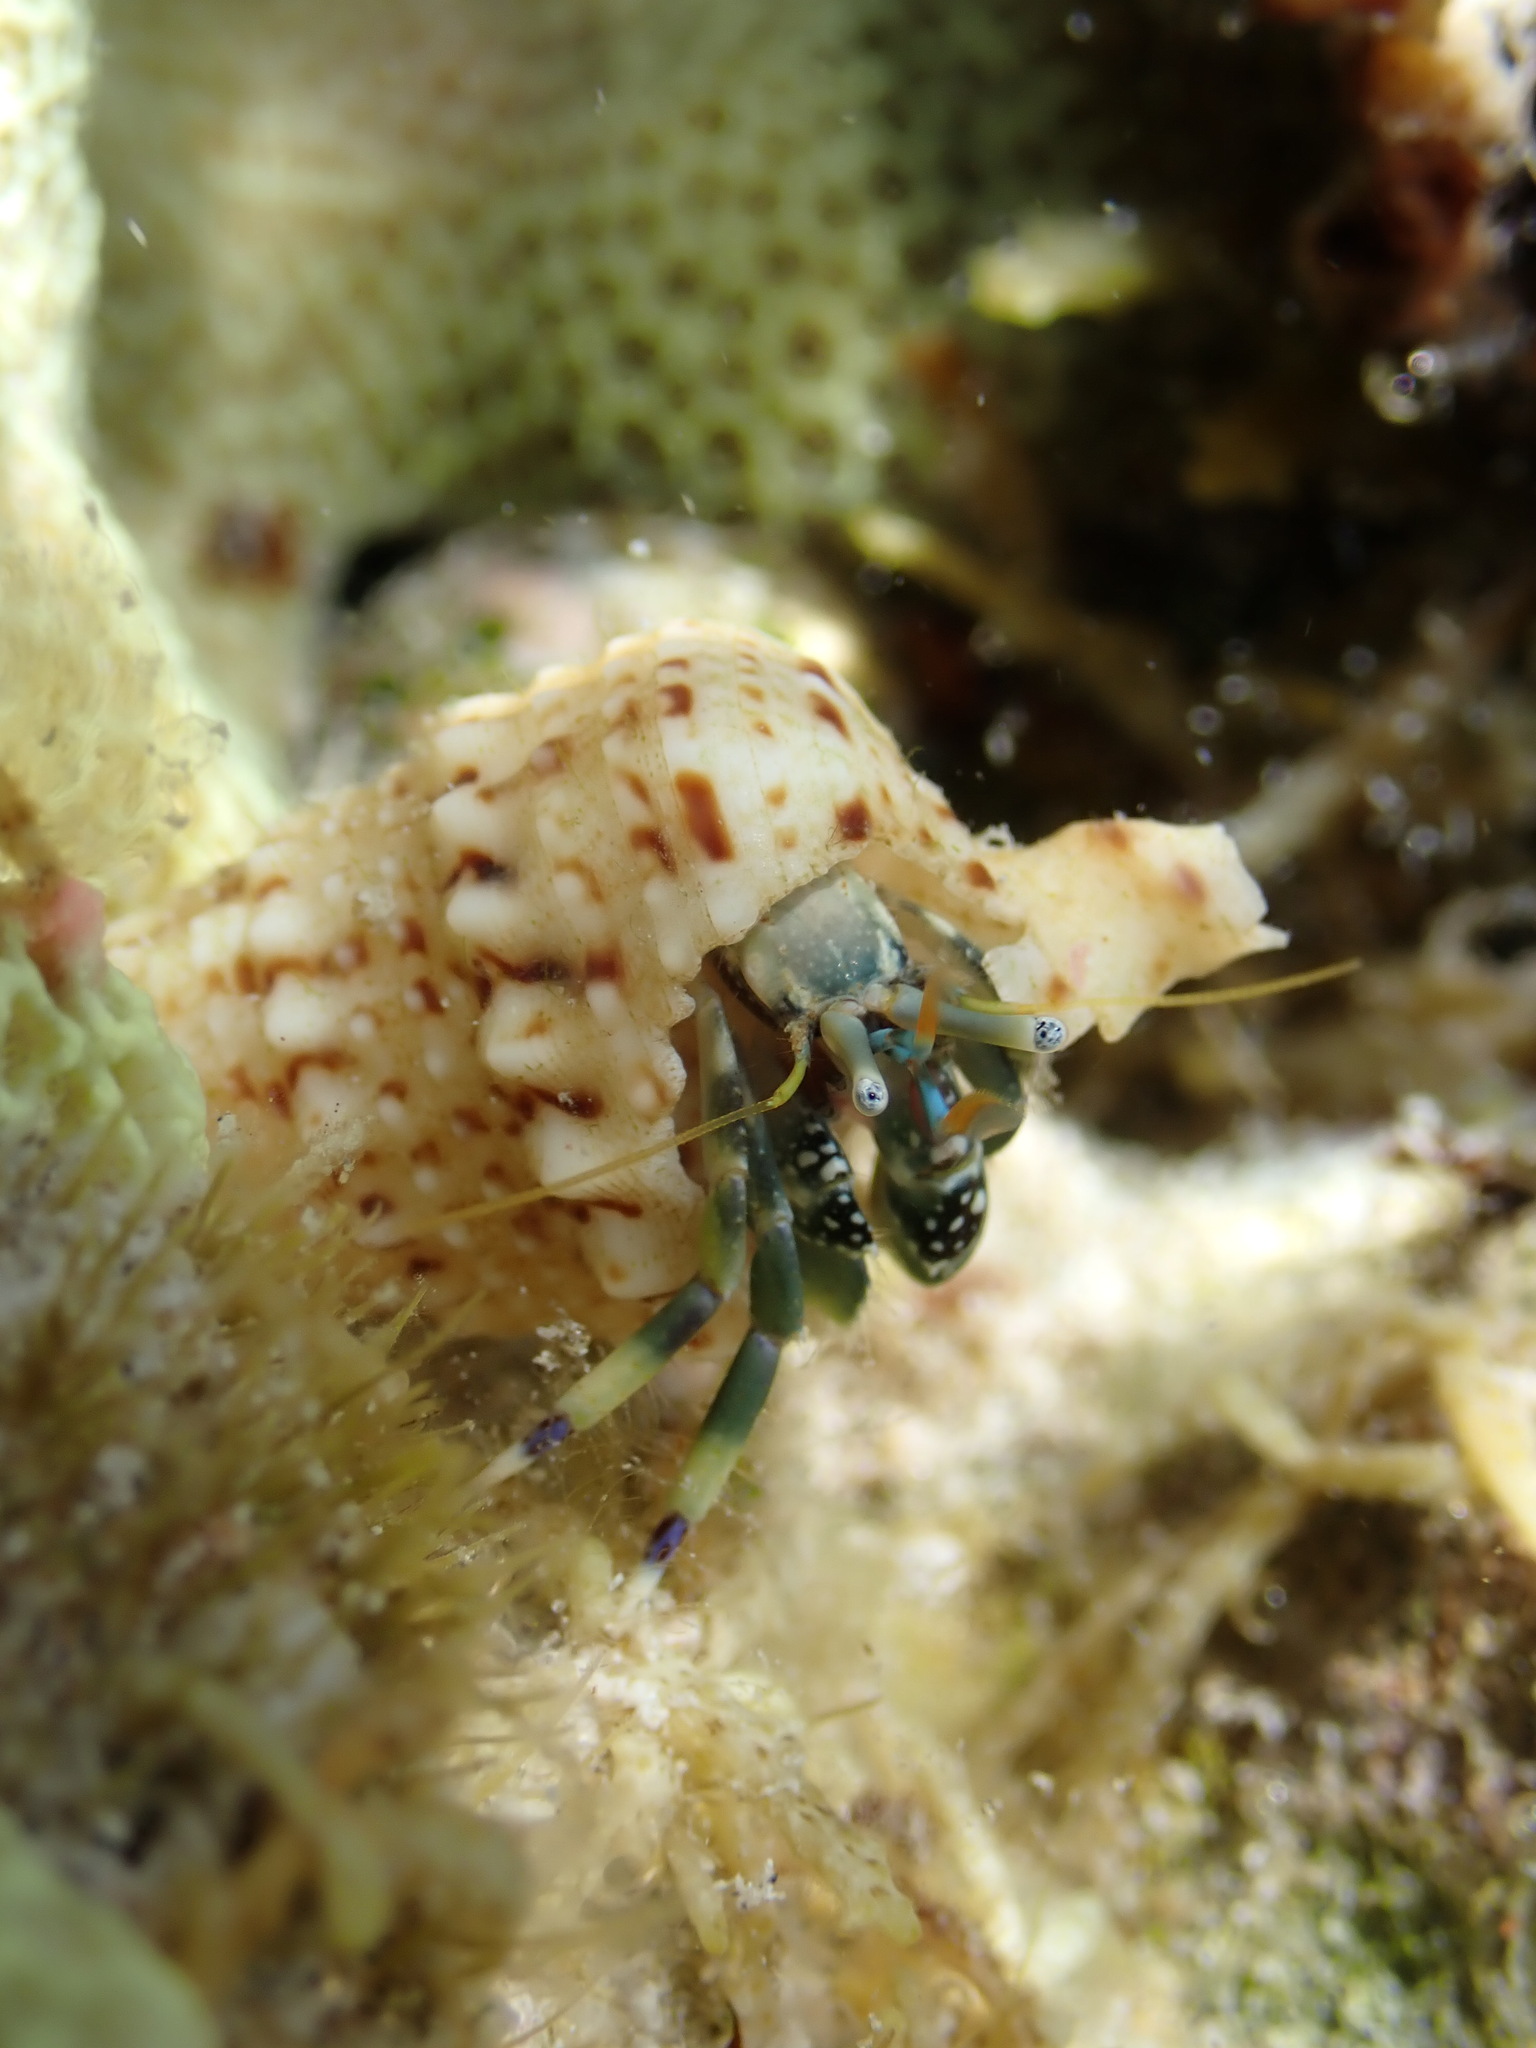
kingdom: Animalia
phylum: Arthropoda
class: Malacostraca
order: Decapoda
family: Diogenidae
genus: Calcinus
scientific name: Calcinus latens
